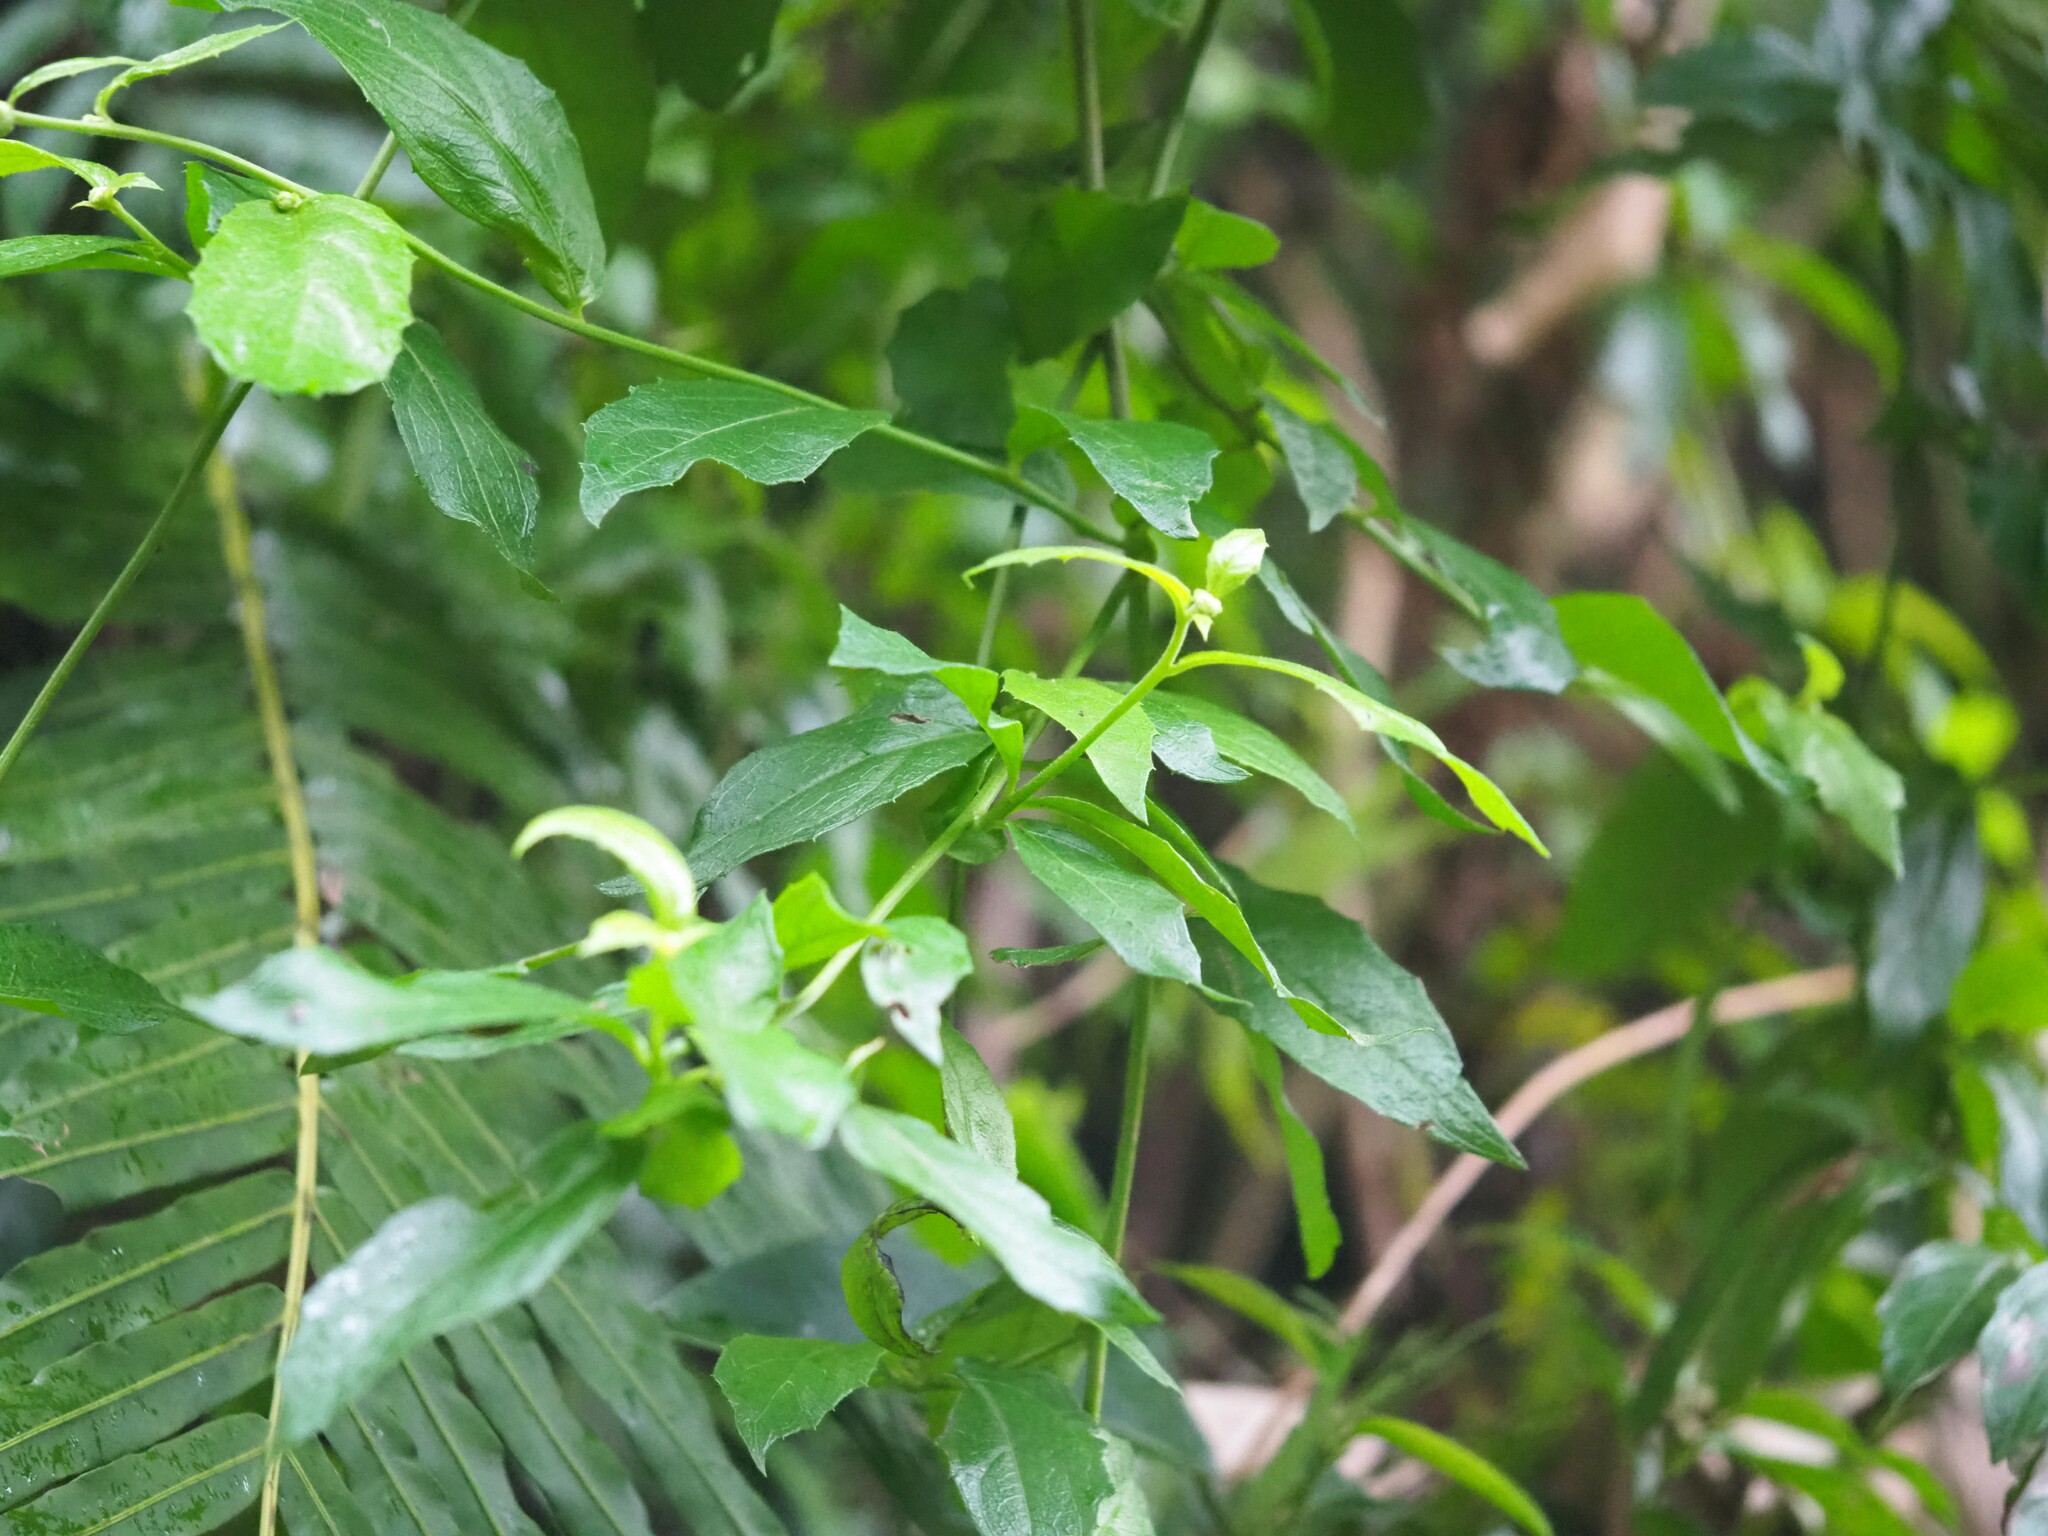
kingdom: Plantae
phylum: Tracheophyta
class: Magnoliopsida
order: Asterales
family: Asteraceae
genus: Blumea
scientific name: Blumea megacephala
